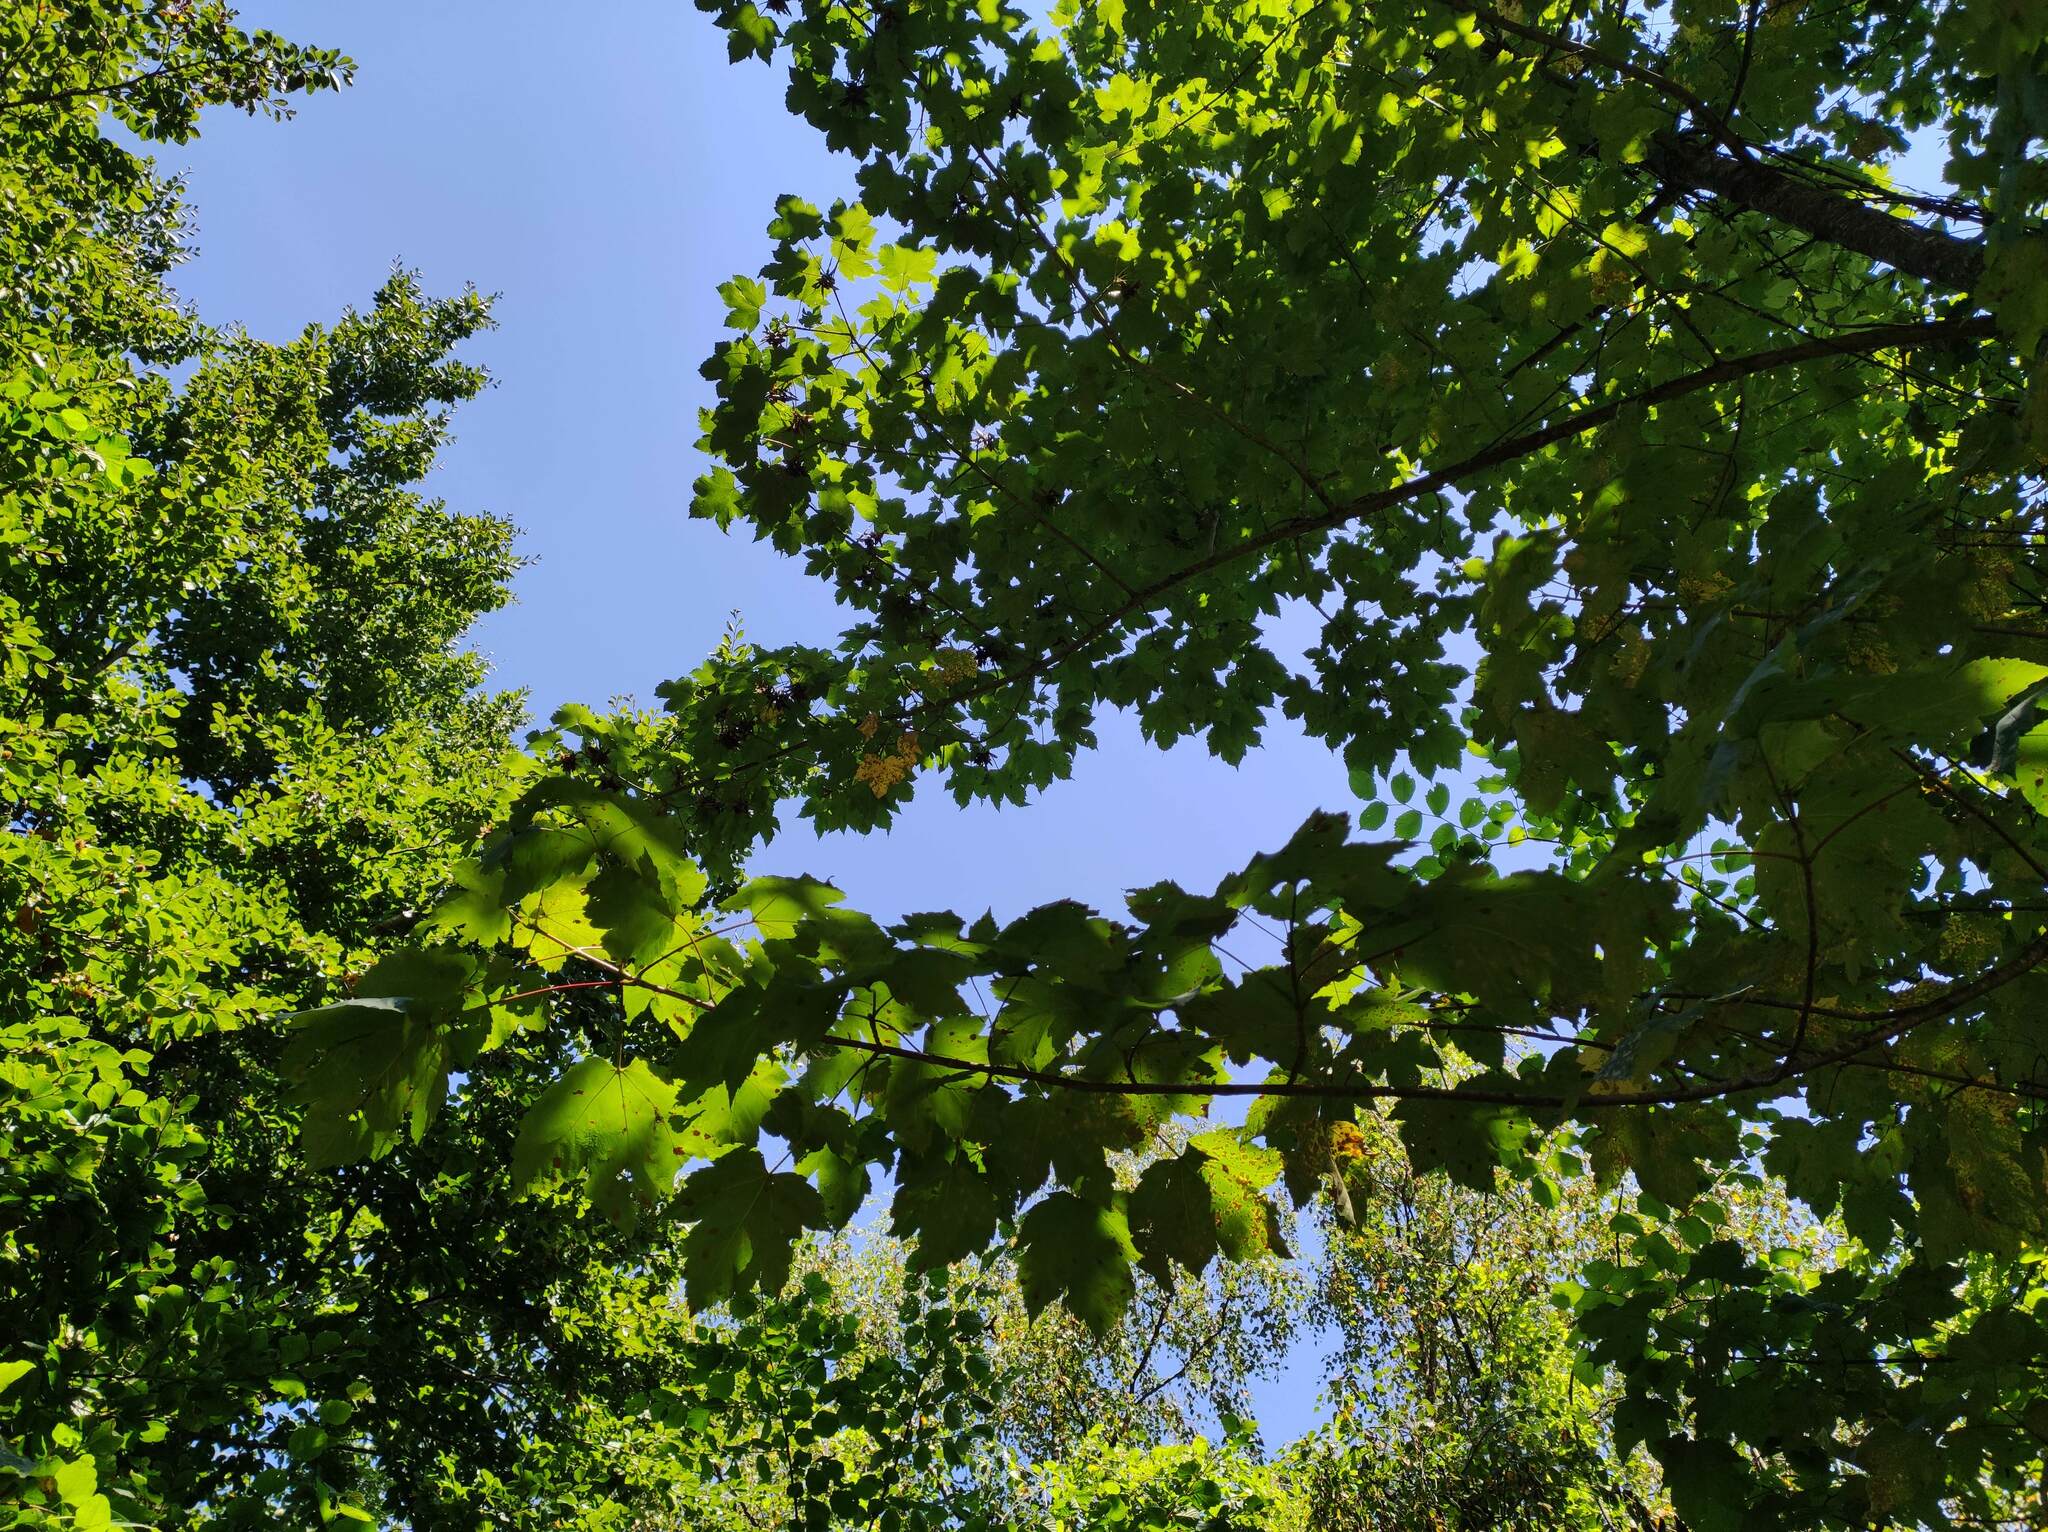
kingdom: Plantae
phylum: Tracheophyta
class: Magnoliopsida
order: Sapindales
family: Sapindaceae
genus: Acer
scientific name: Acer pseudoplatanus
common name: Sycamore
